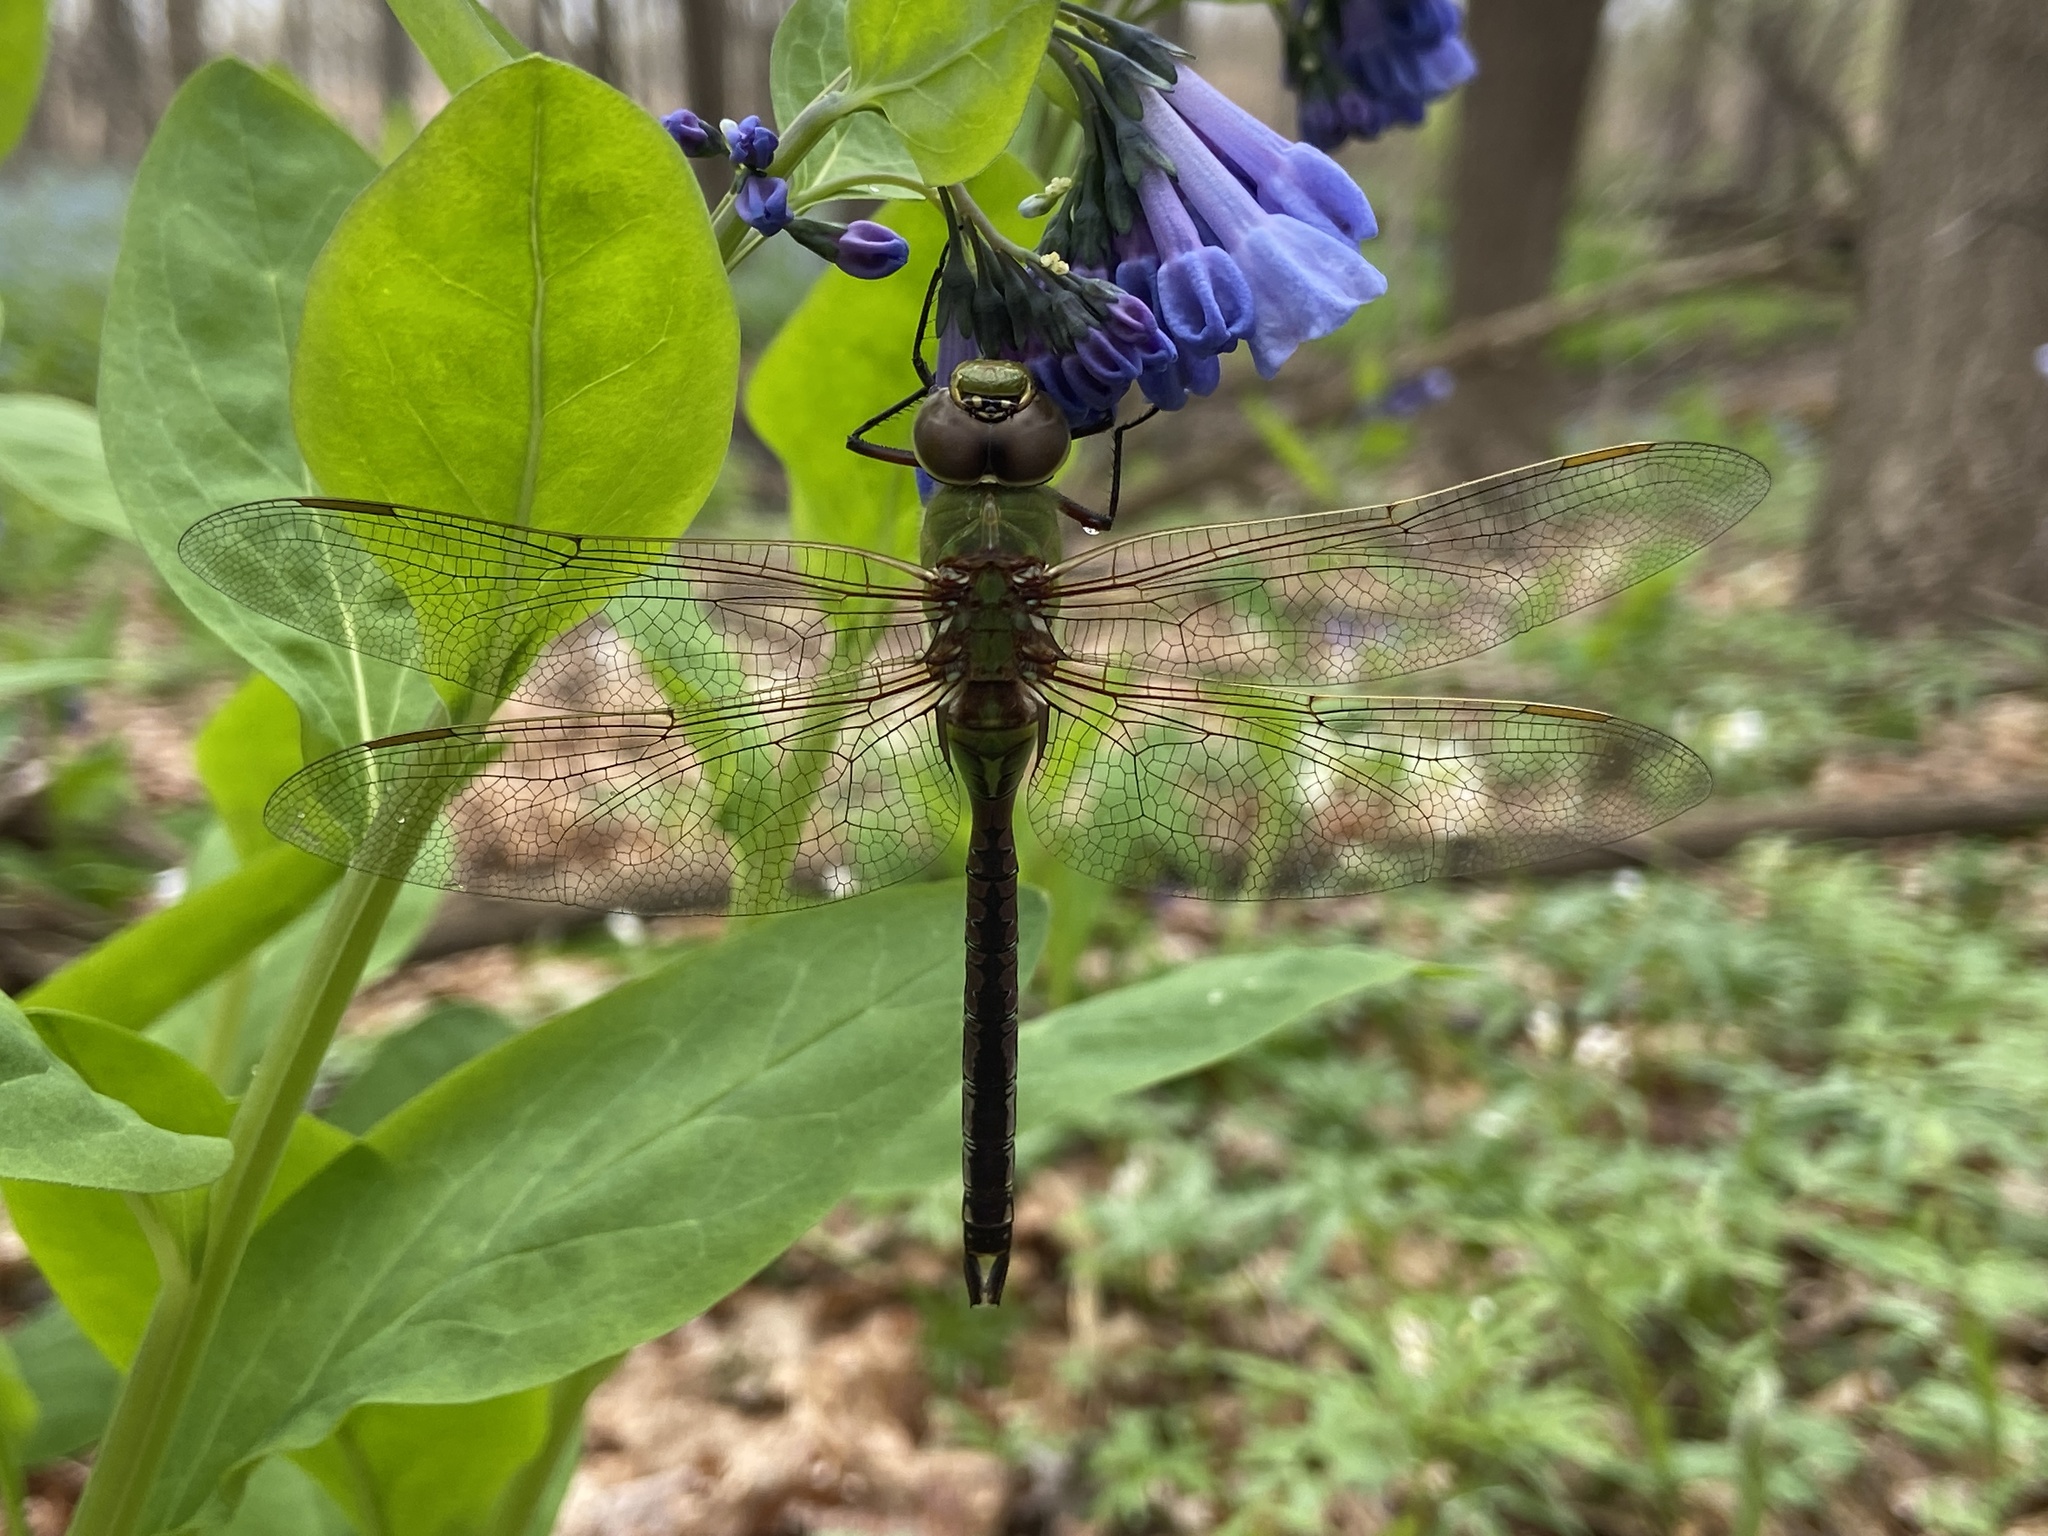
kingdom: Animalia
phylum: Arthropoda
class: Insecta
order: Odonata
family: Aeshnidae
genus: Anax
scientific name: Anax junius
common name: Common green darner
